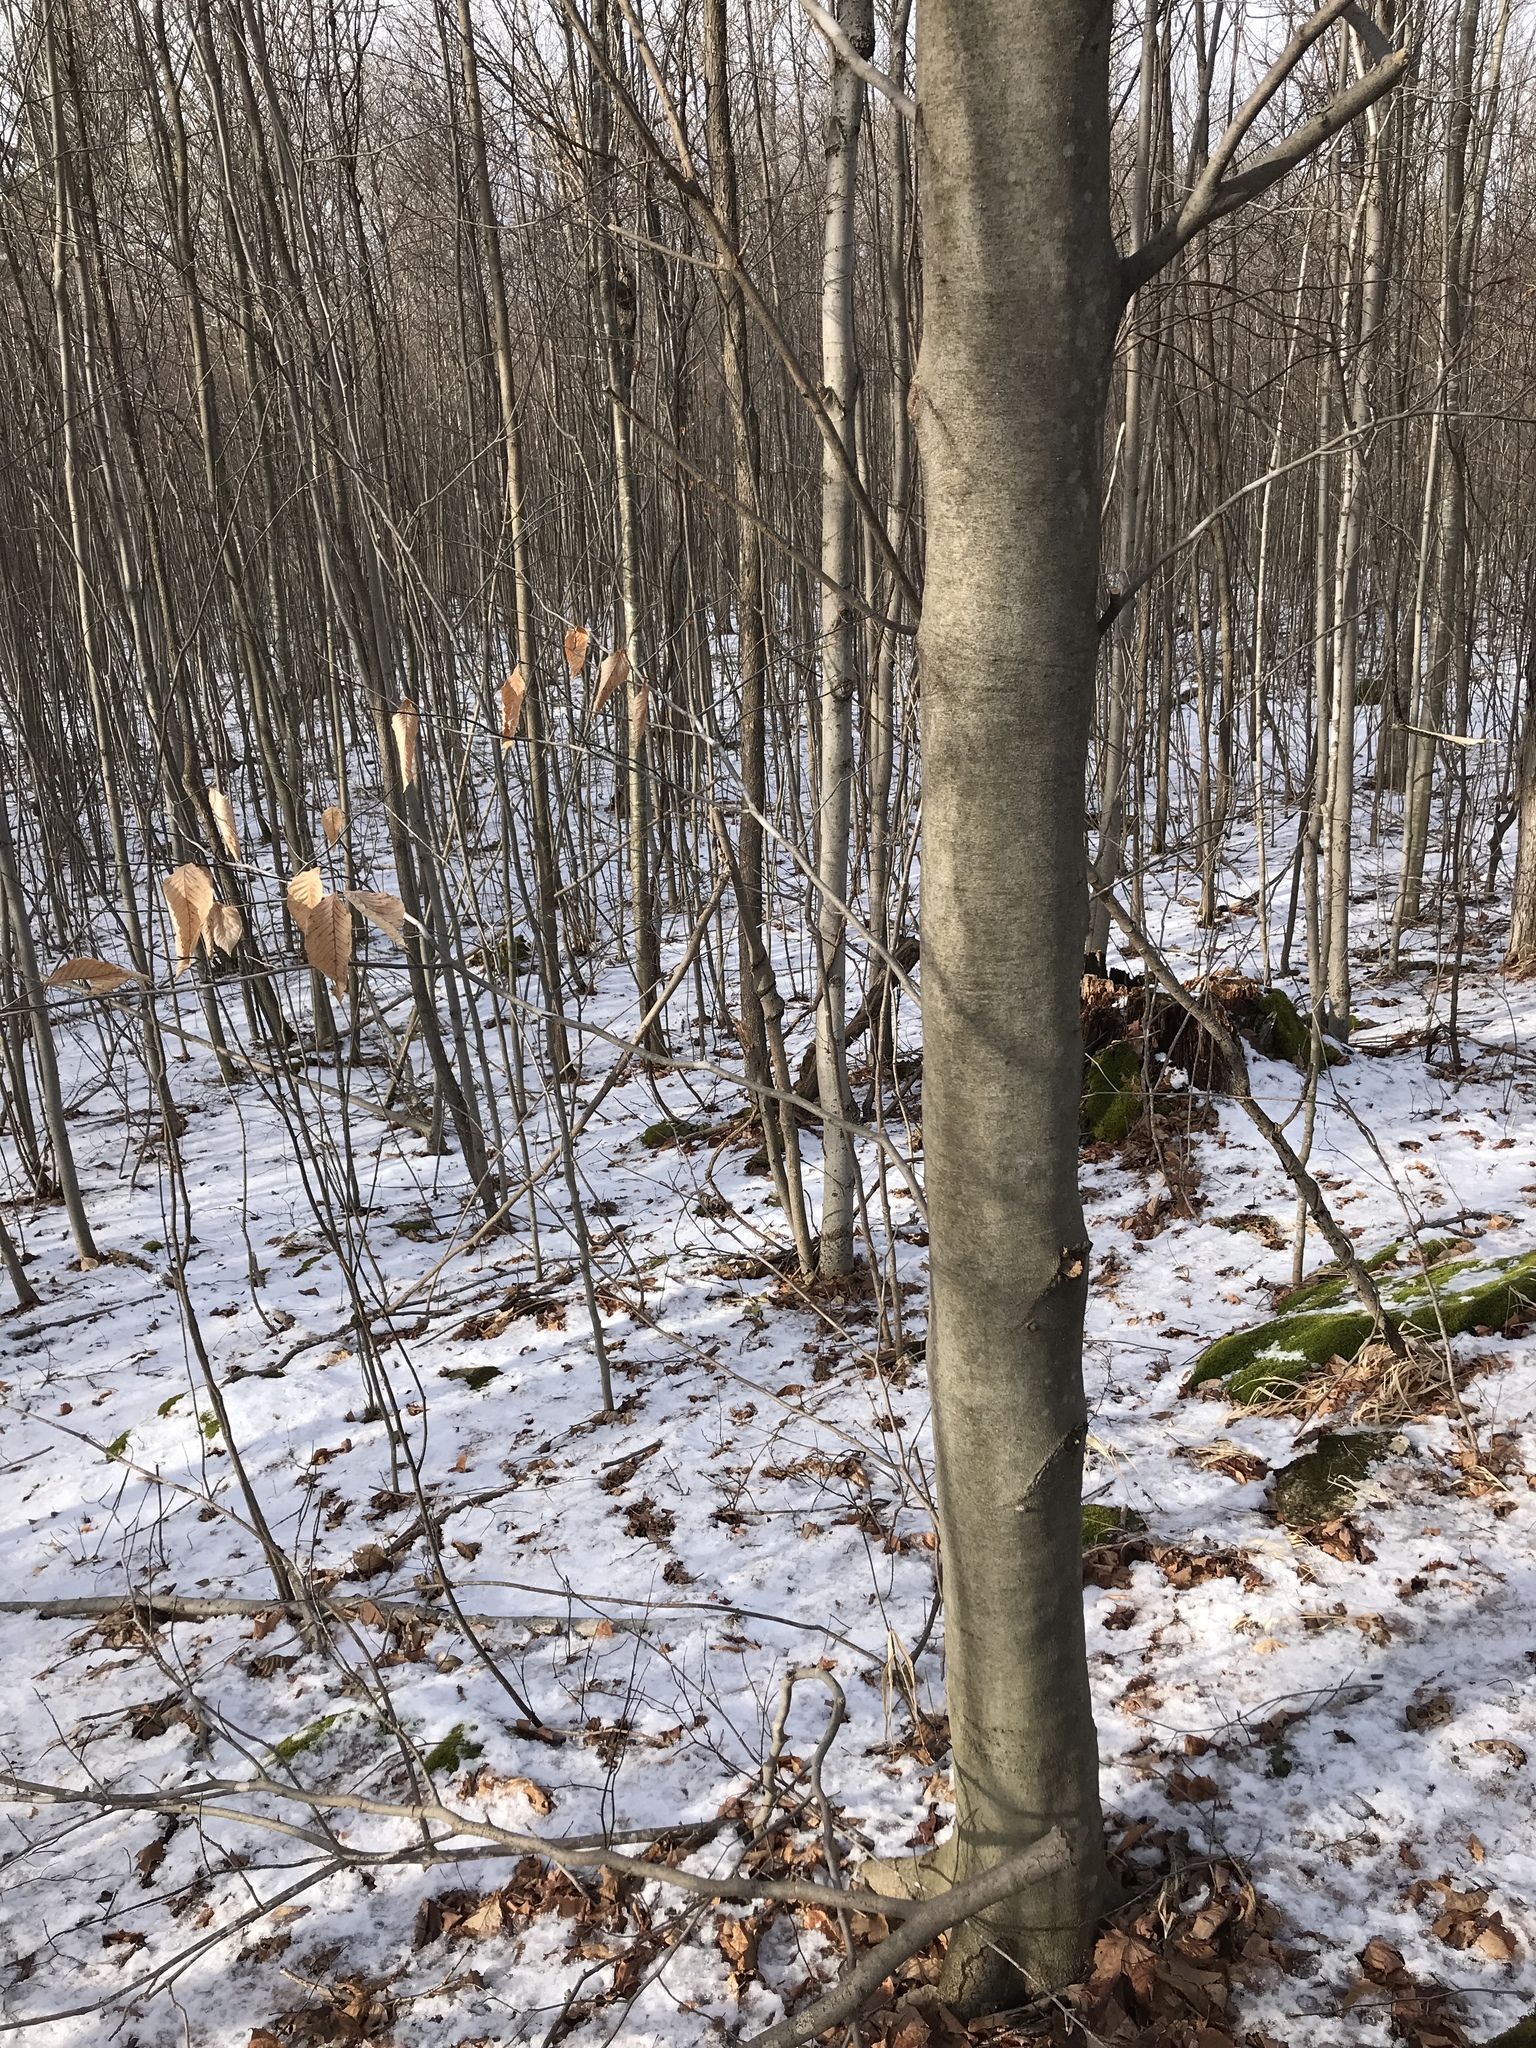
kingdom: Plantae
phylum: Tracheophyta
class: Magnoliopsida
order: Fagales
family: Fagaceae
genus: Fagus
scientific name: Fagus grandifolia
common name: American beech
